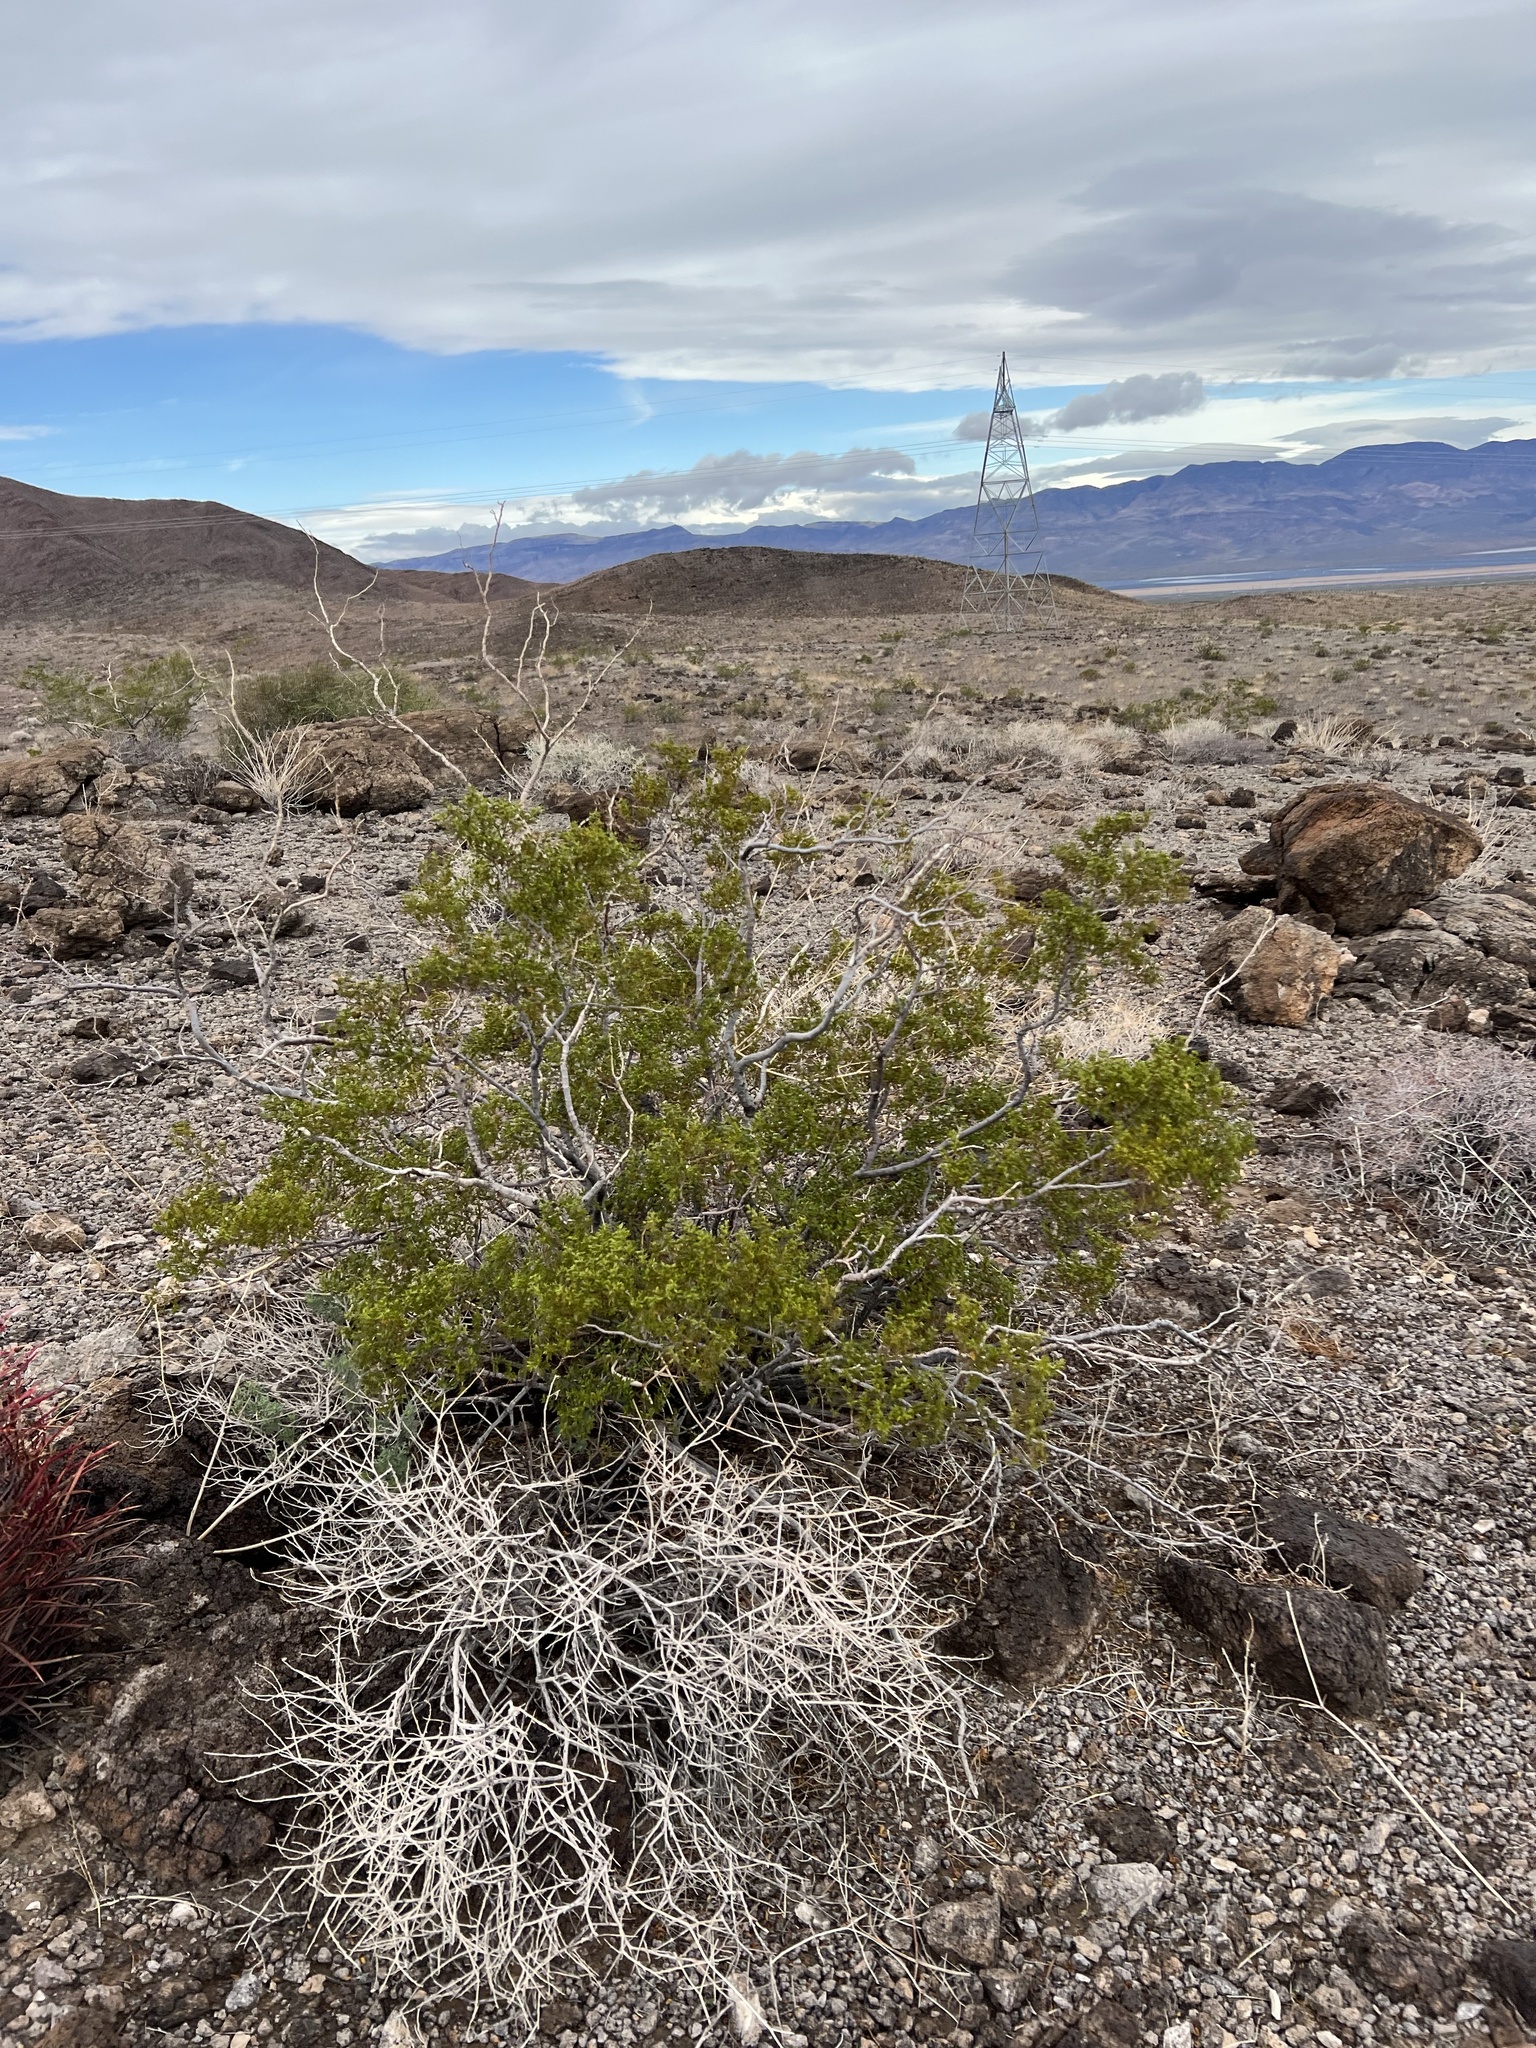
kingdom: Plantae
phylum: Tracheophyta
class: Magnoliopsida
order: Zygophyllales
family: Zygophyllaceae
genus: Larrea
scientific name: Larrea tridentata
